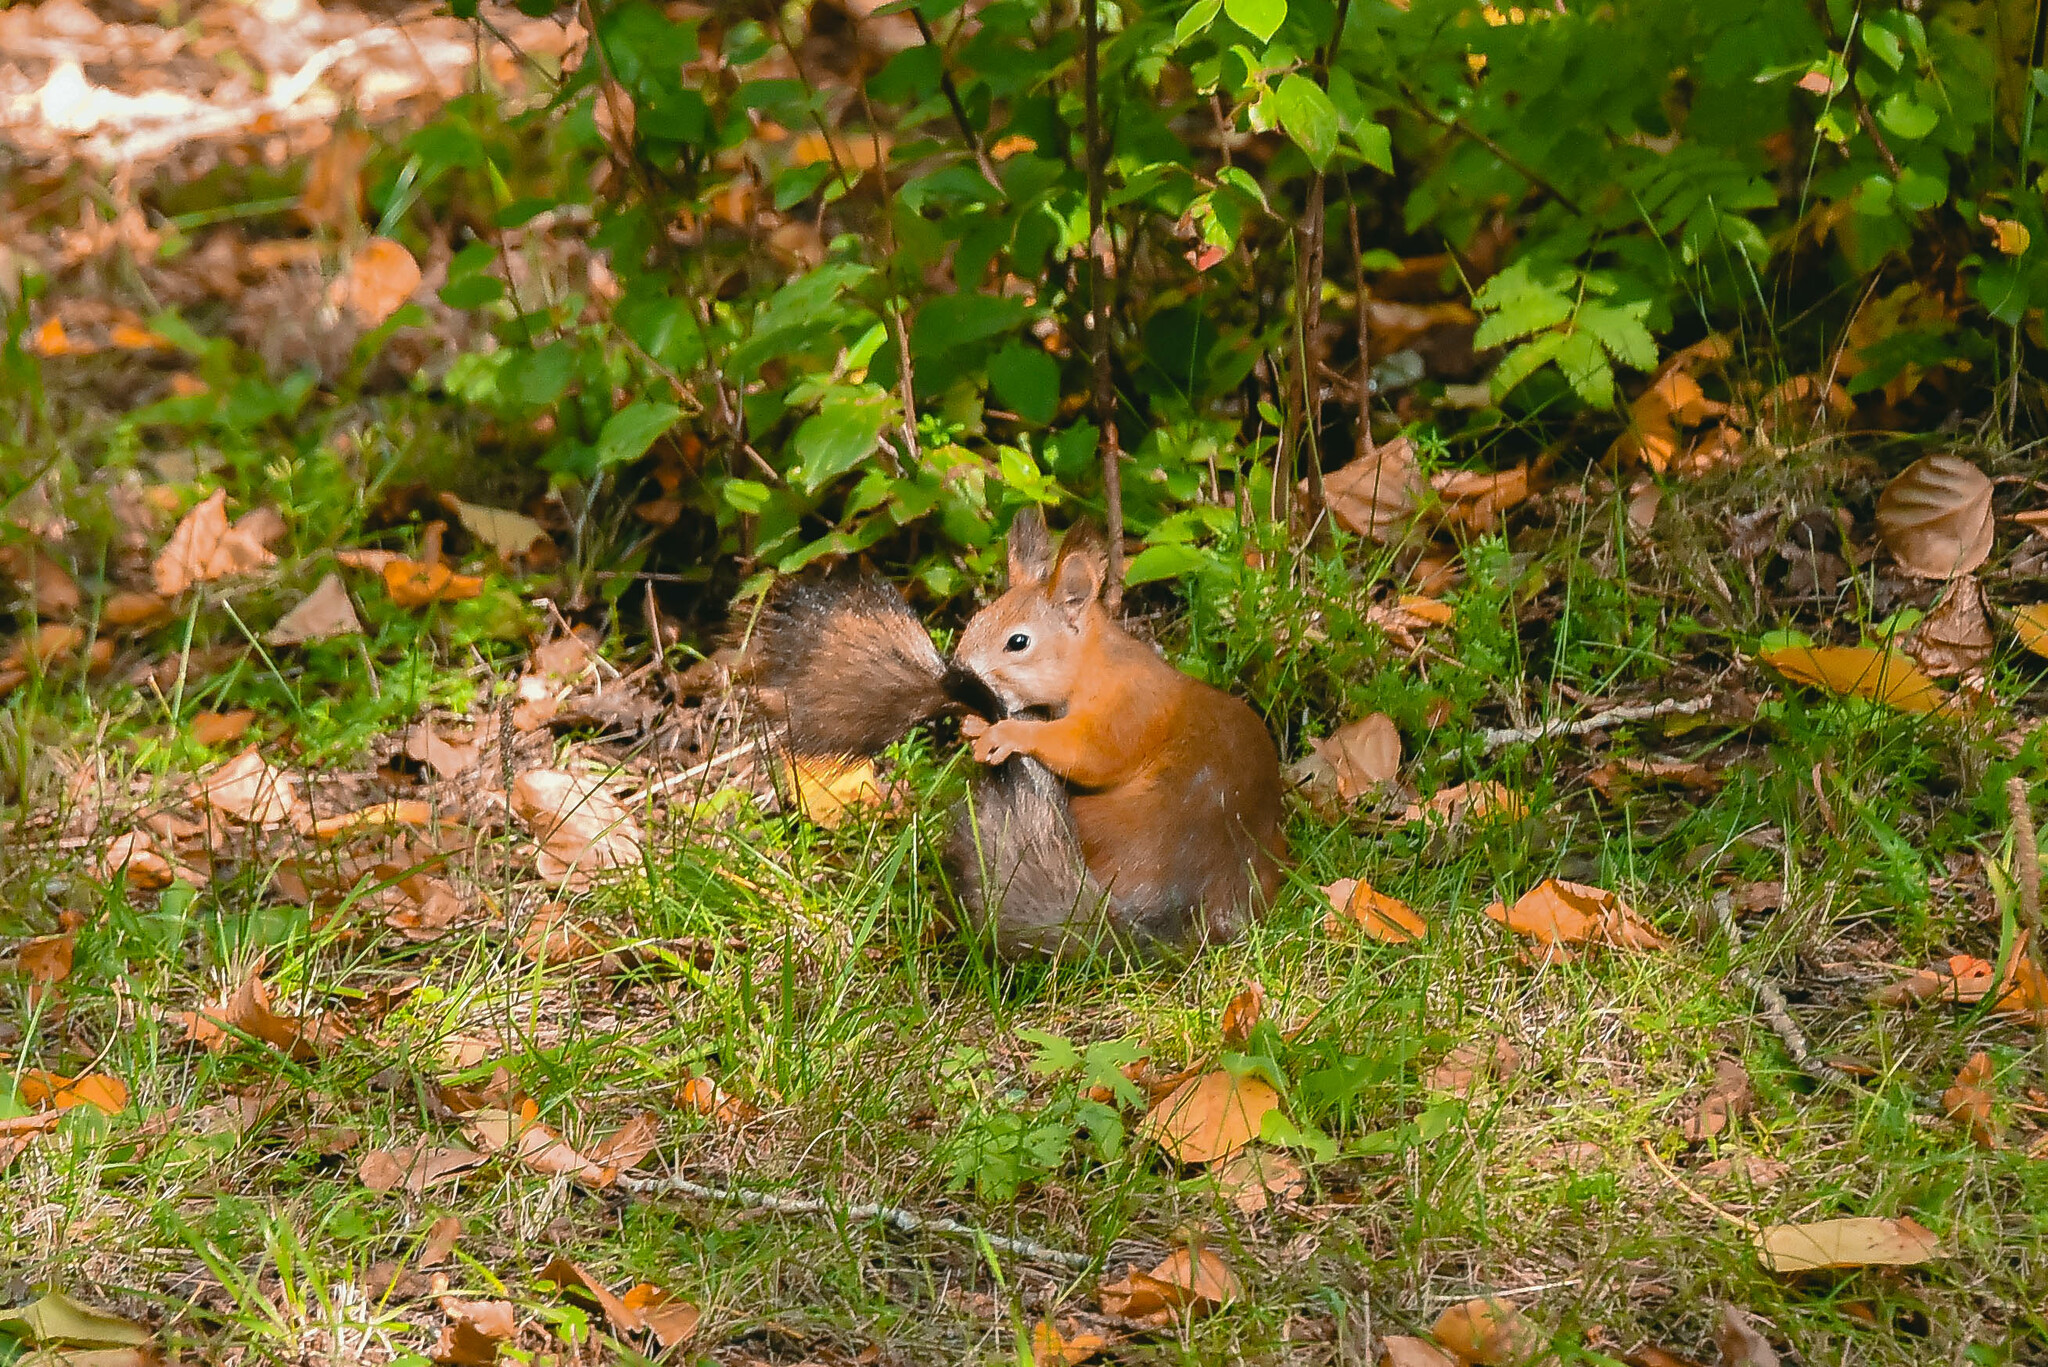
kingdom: Animalia
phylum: Chordata
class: Mammalia
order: Rodentia
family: Sciuridae
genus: Sciurus
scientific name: Sciurus vulgaris
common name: Eurasian red squirrel
